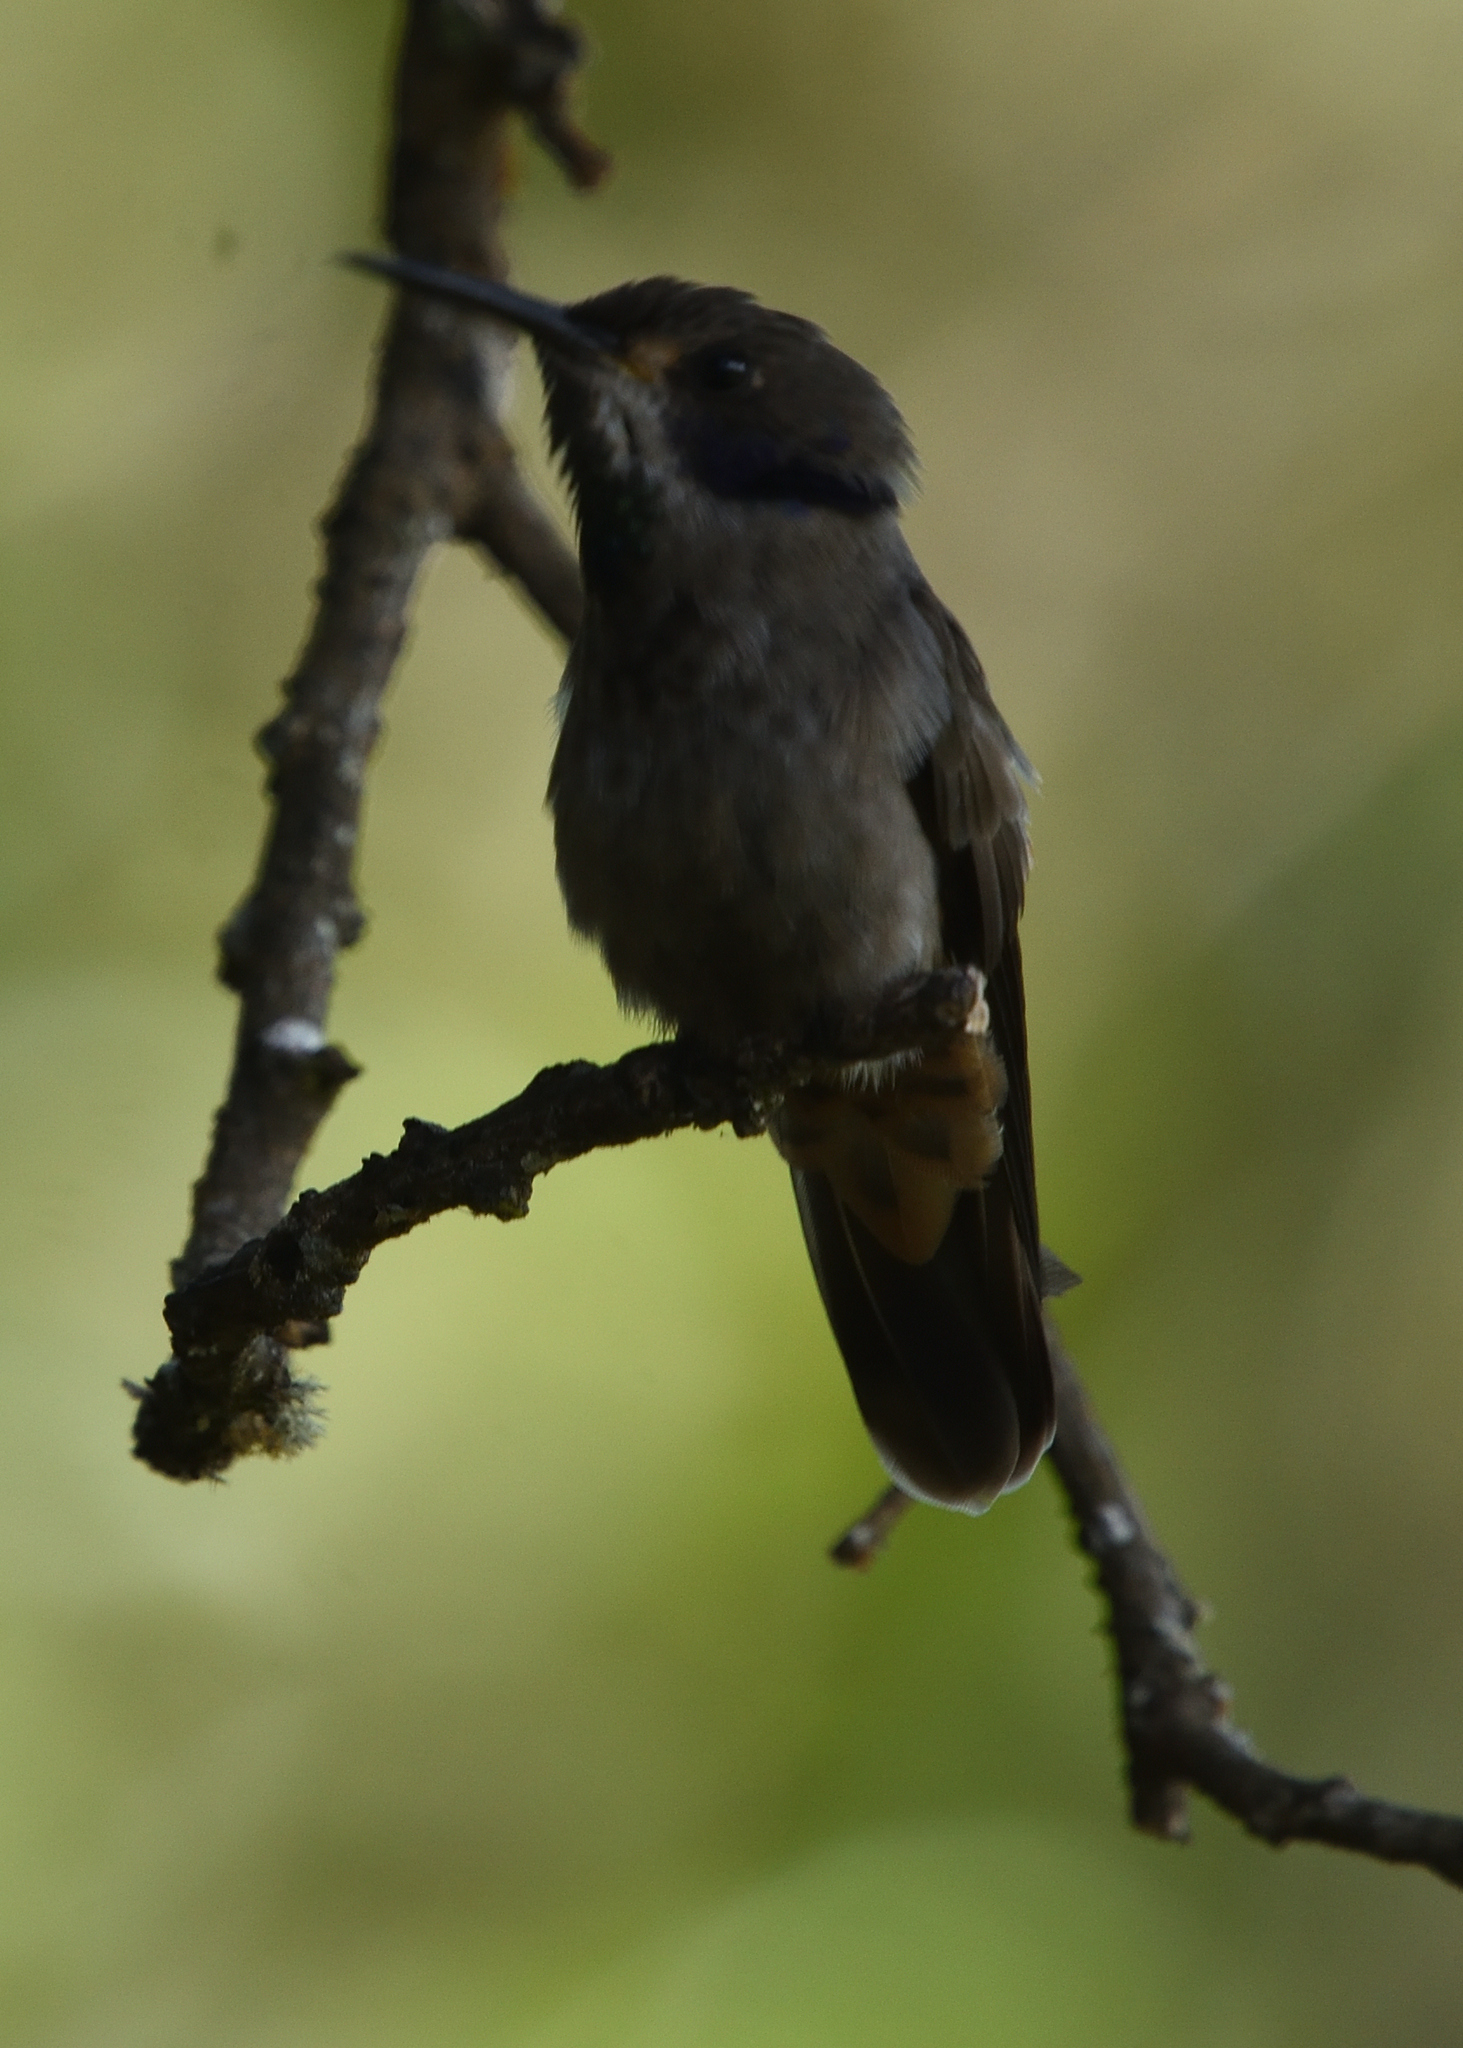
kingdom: Animalia
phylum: Chordata
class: Aves
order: Apodiformes
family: Trochilidae
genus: Colibri
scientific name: Colibri delphinae
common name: Brown violetear
